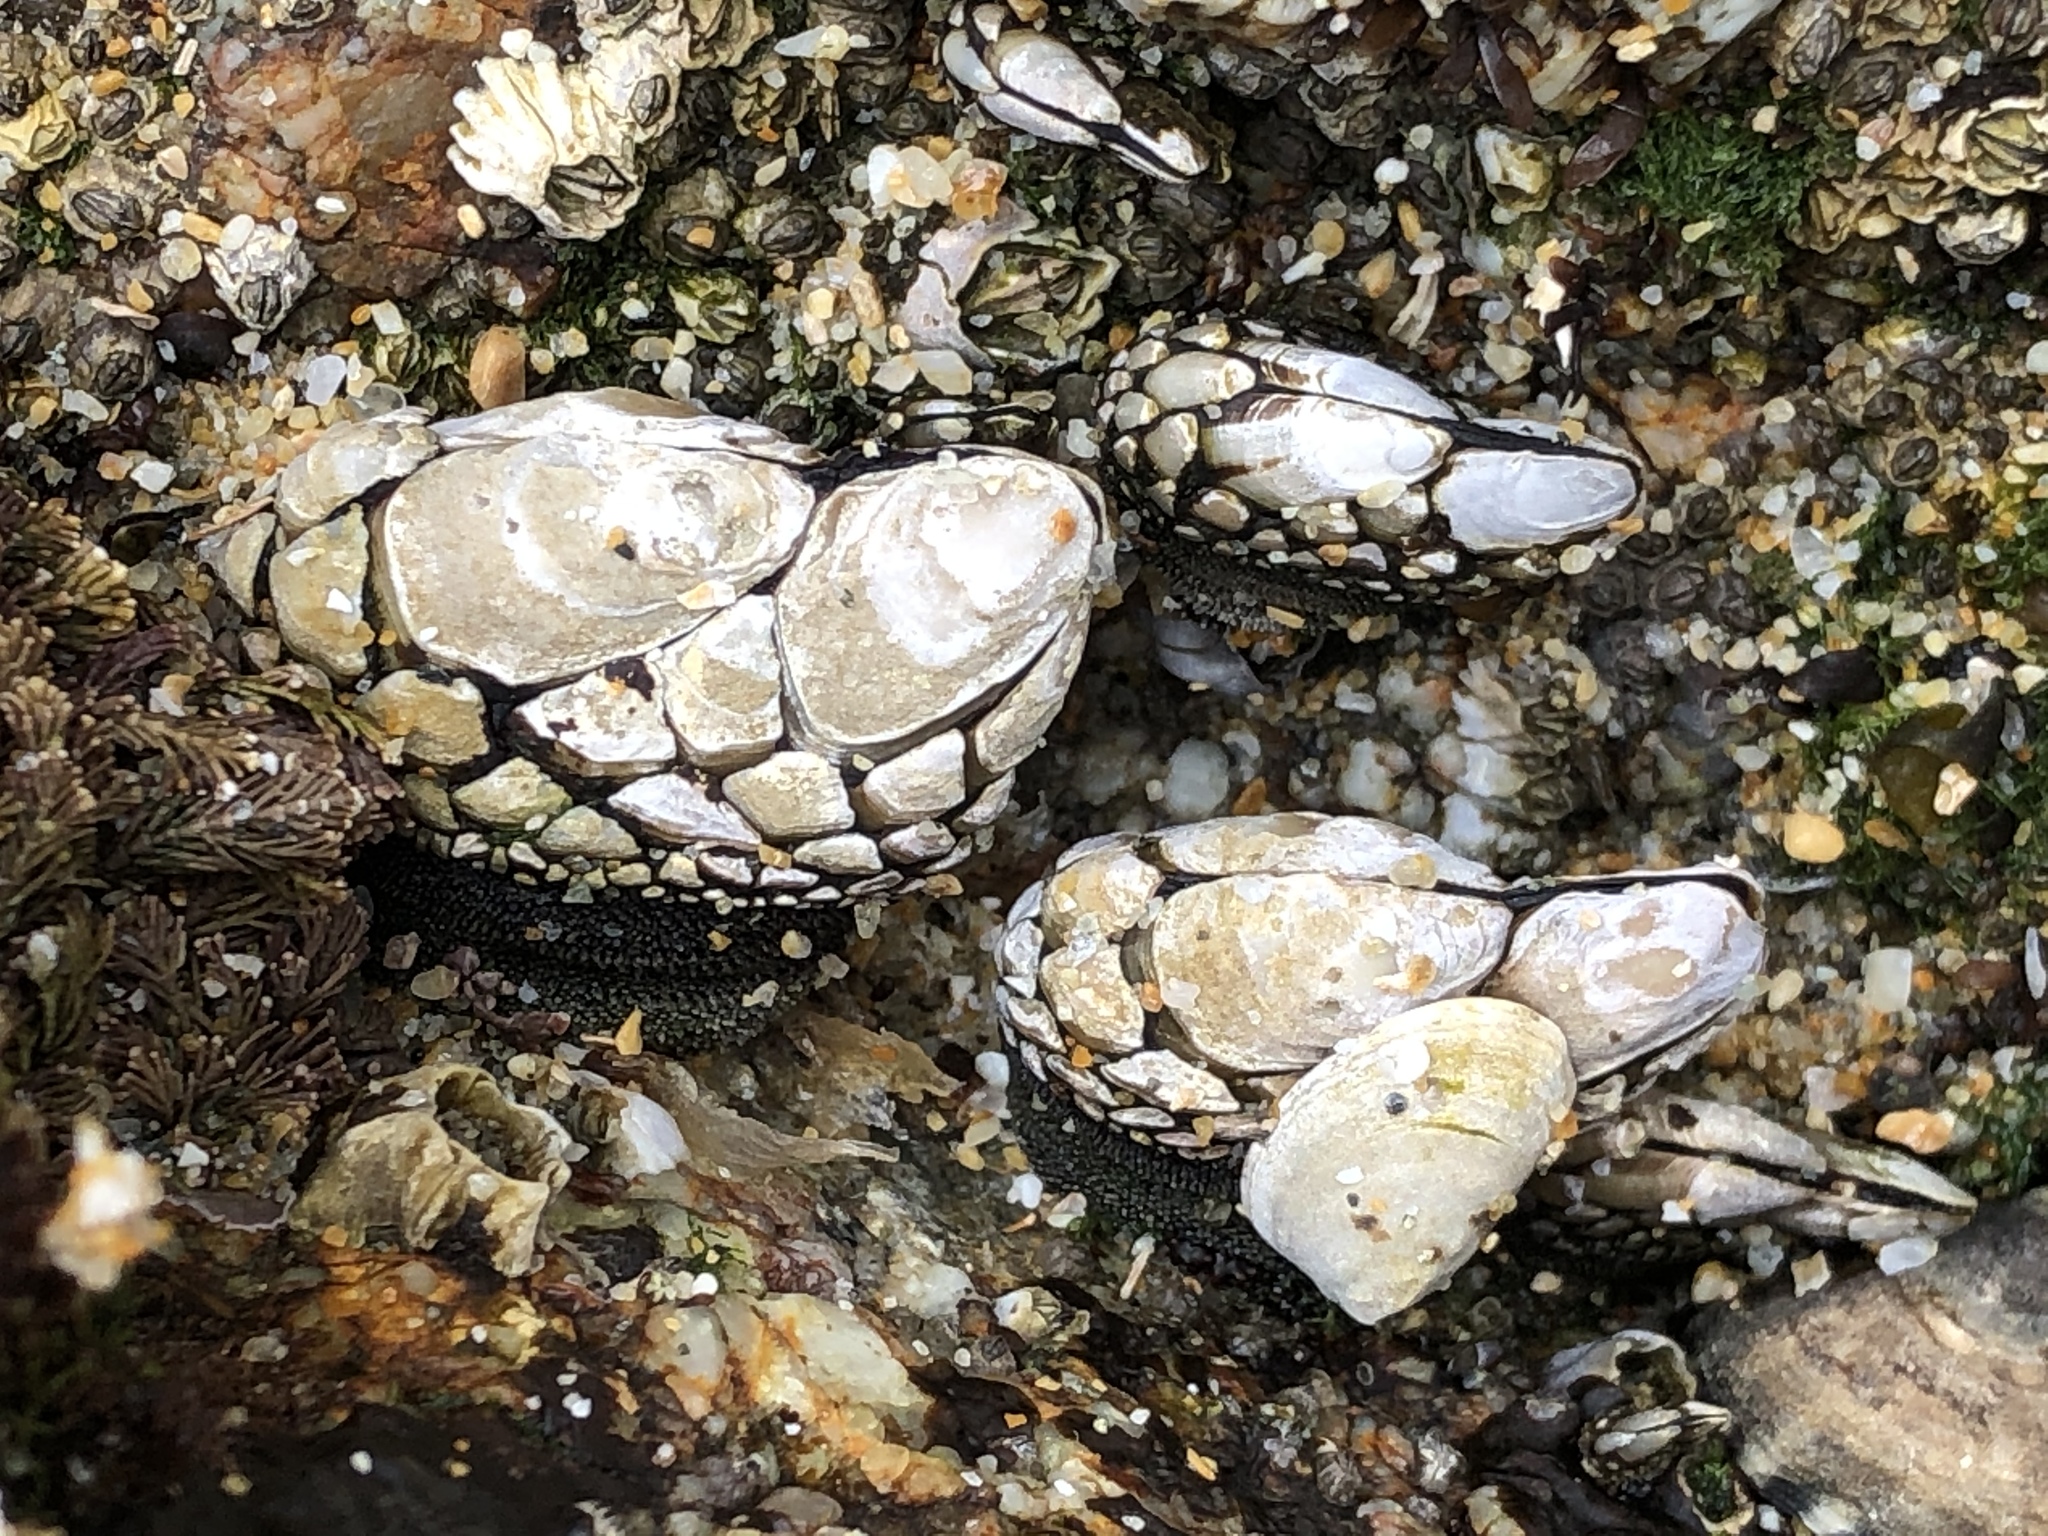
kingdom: Animalia
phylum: Arthropoda
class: Maxillopoda
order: Pedunculata
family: Pollicipedidae
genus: Pollicipes
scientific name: Pollicipes polymerus
